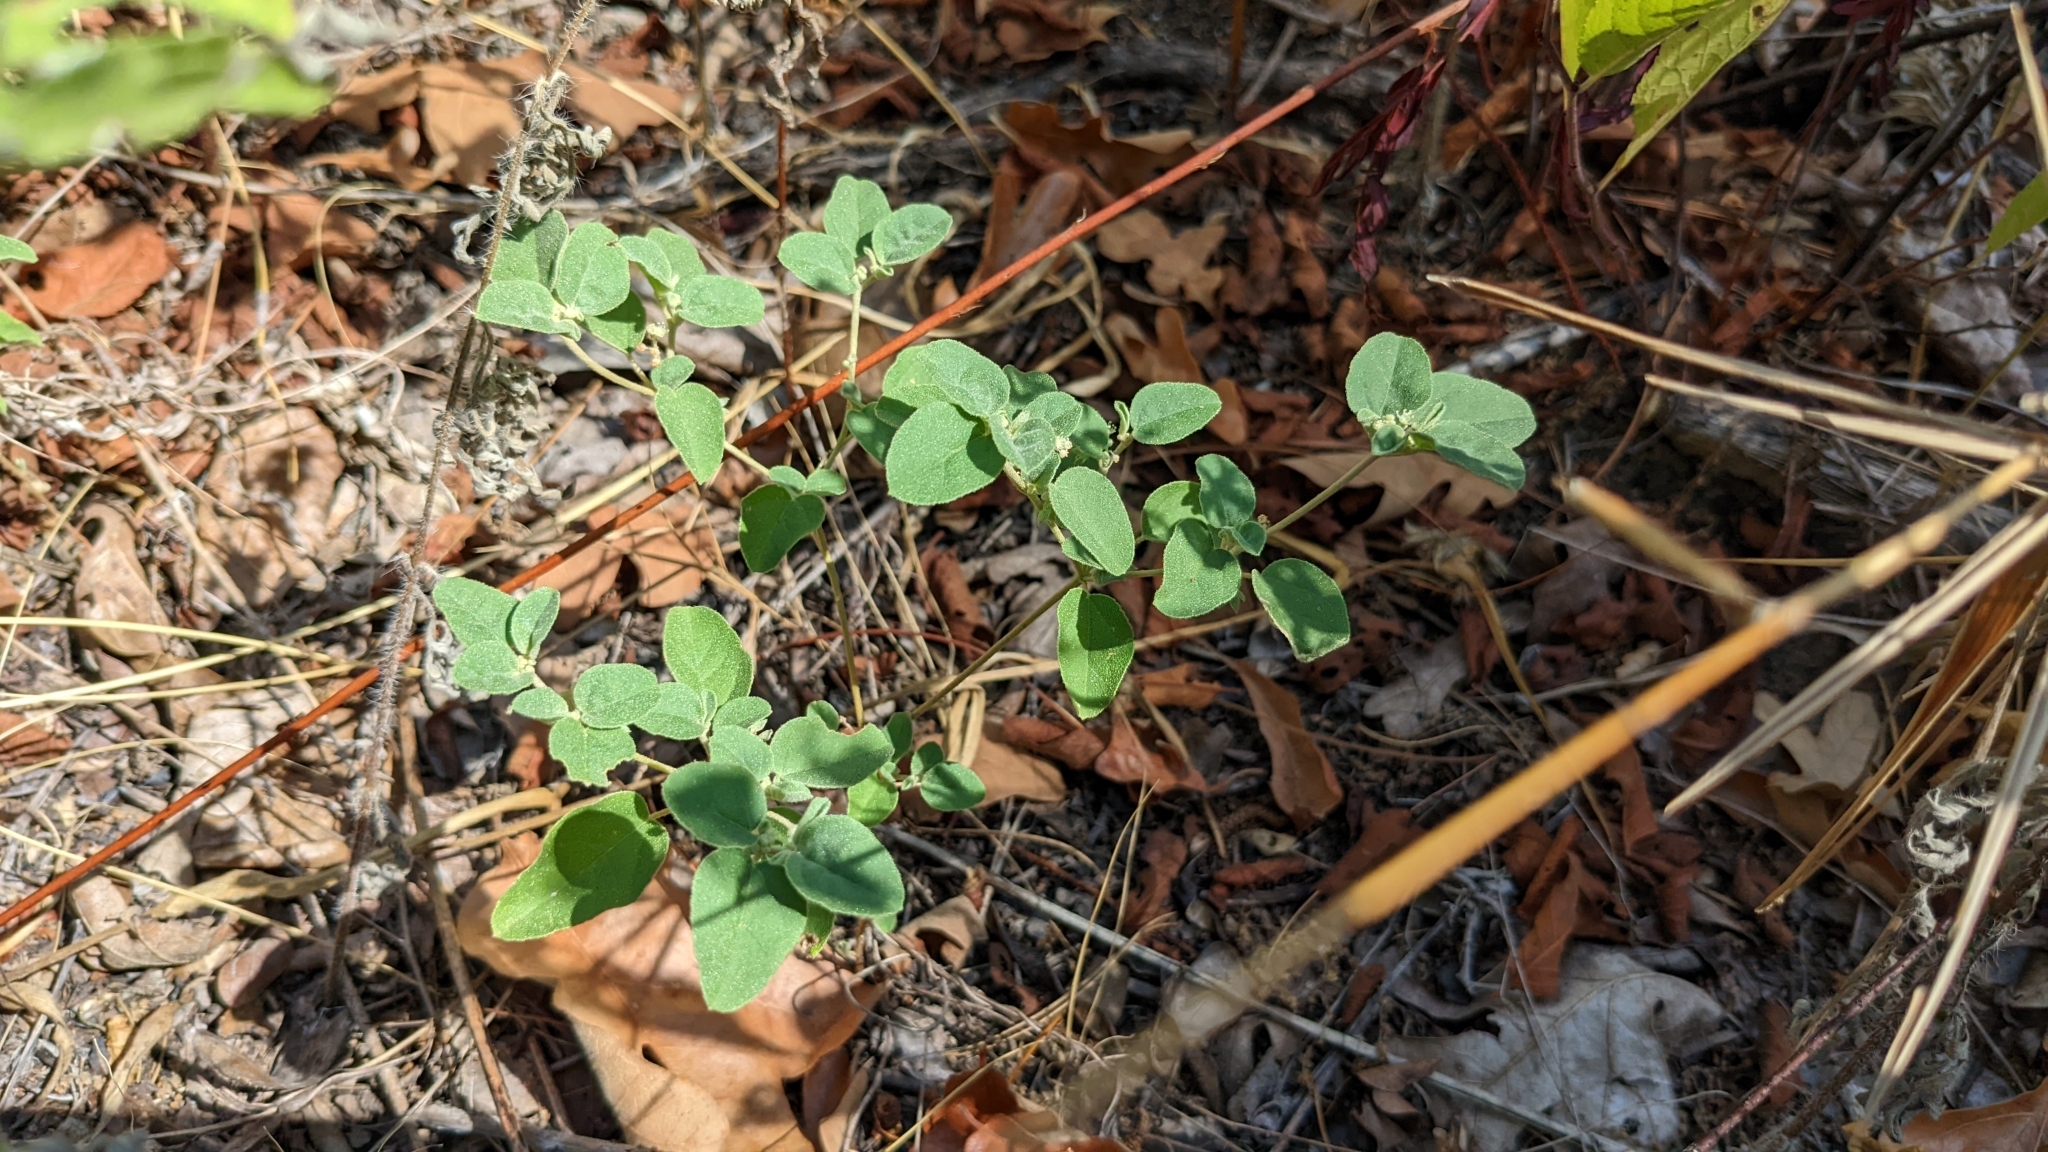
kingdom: Plantae
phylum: Tracheophyta
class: Magnoliopsida
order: Malpighiales
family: Euphorbiaceae
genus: Croton
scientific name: Croton monanthogynus
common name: One-seed croton
